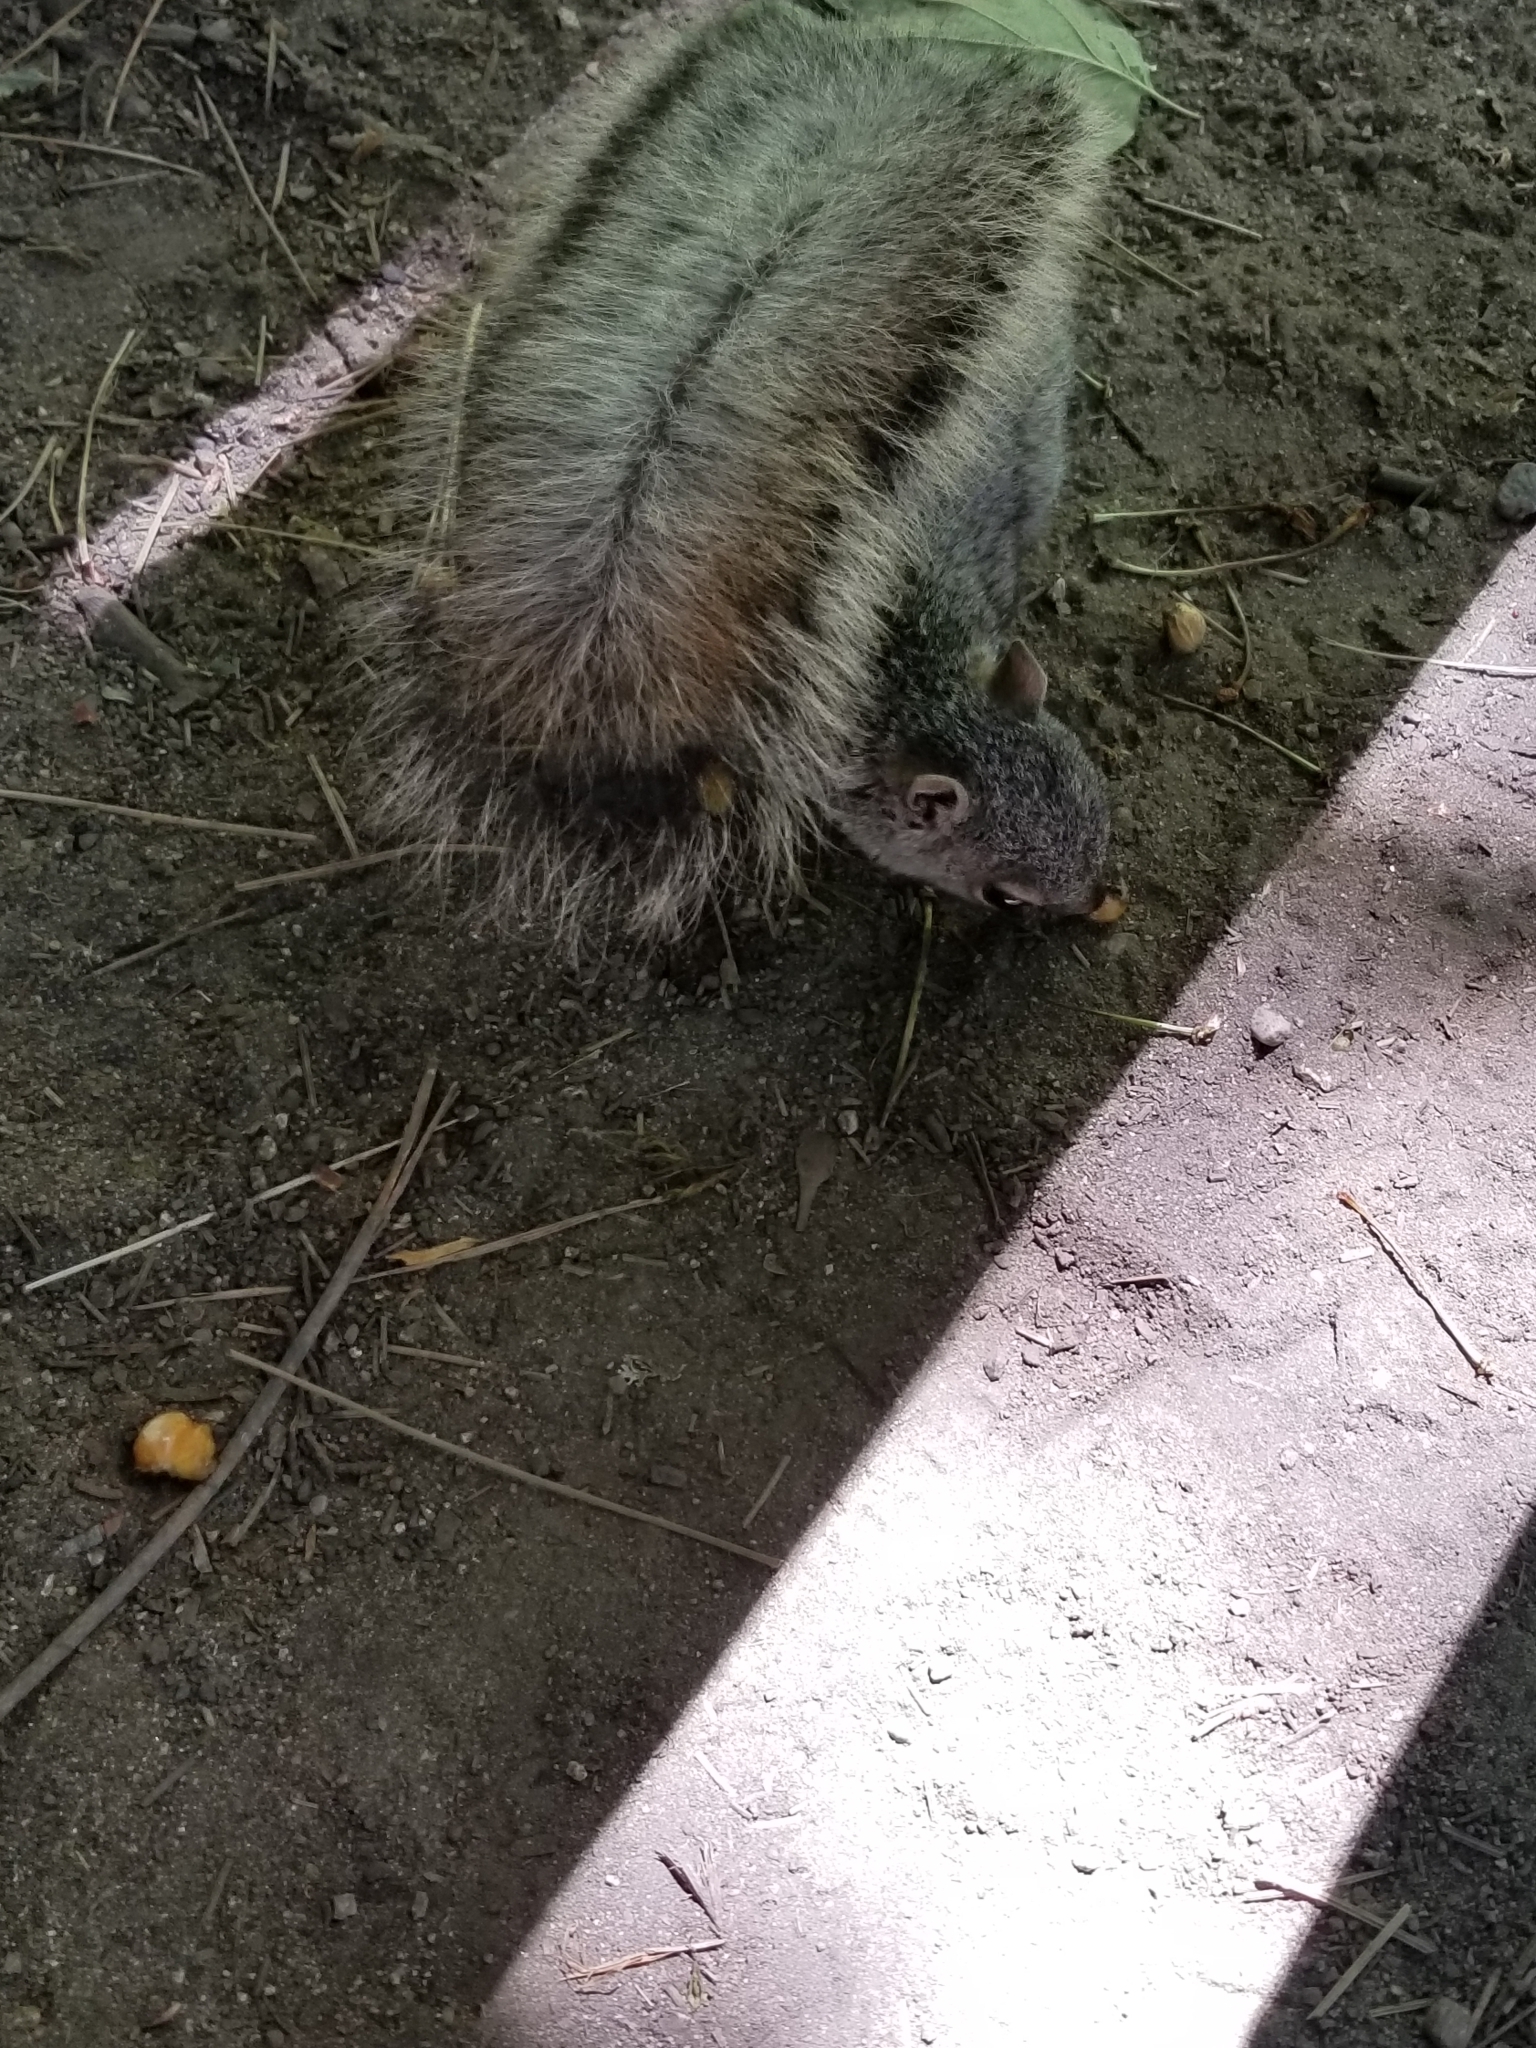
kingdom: Animalia
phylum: Chordata
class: Mammalia
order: Rodentia
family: Sciuridae
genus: Sciurus
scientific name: Sciurus griseus
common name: Western gray squirrel
